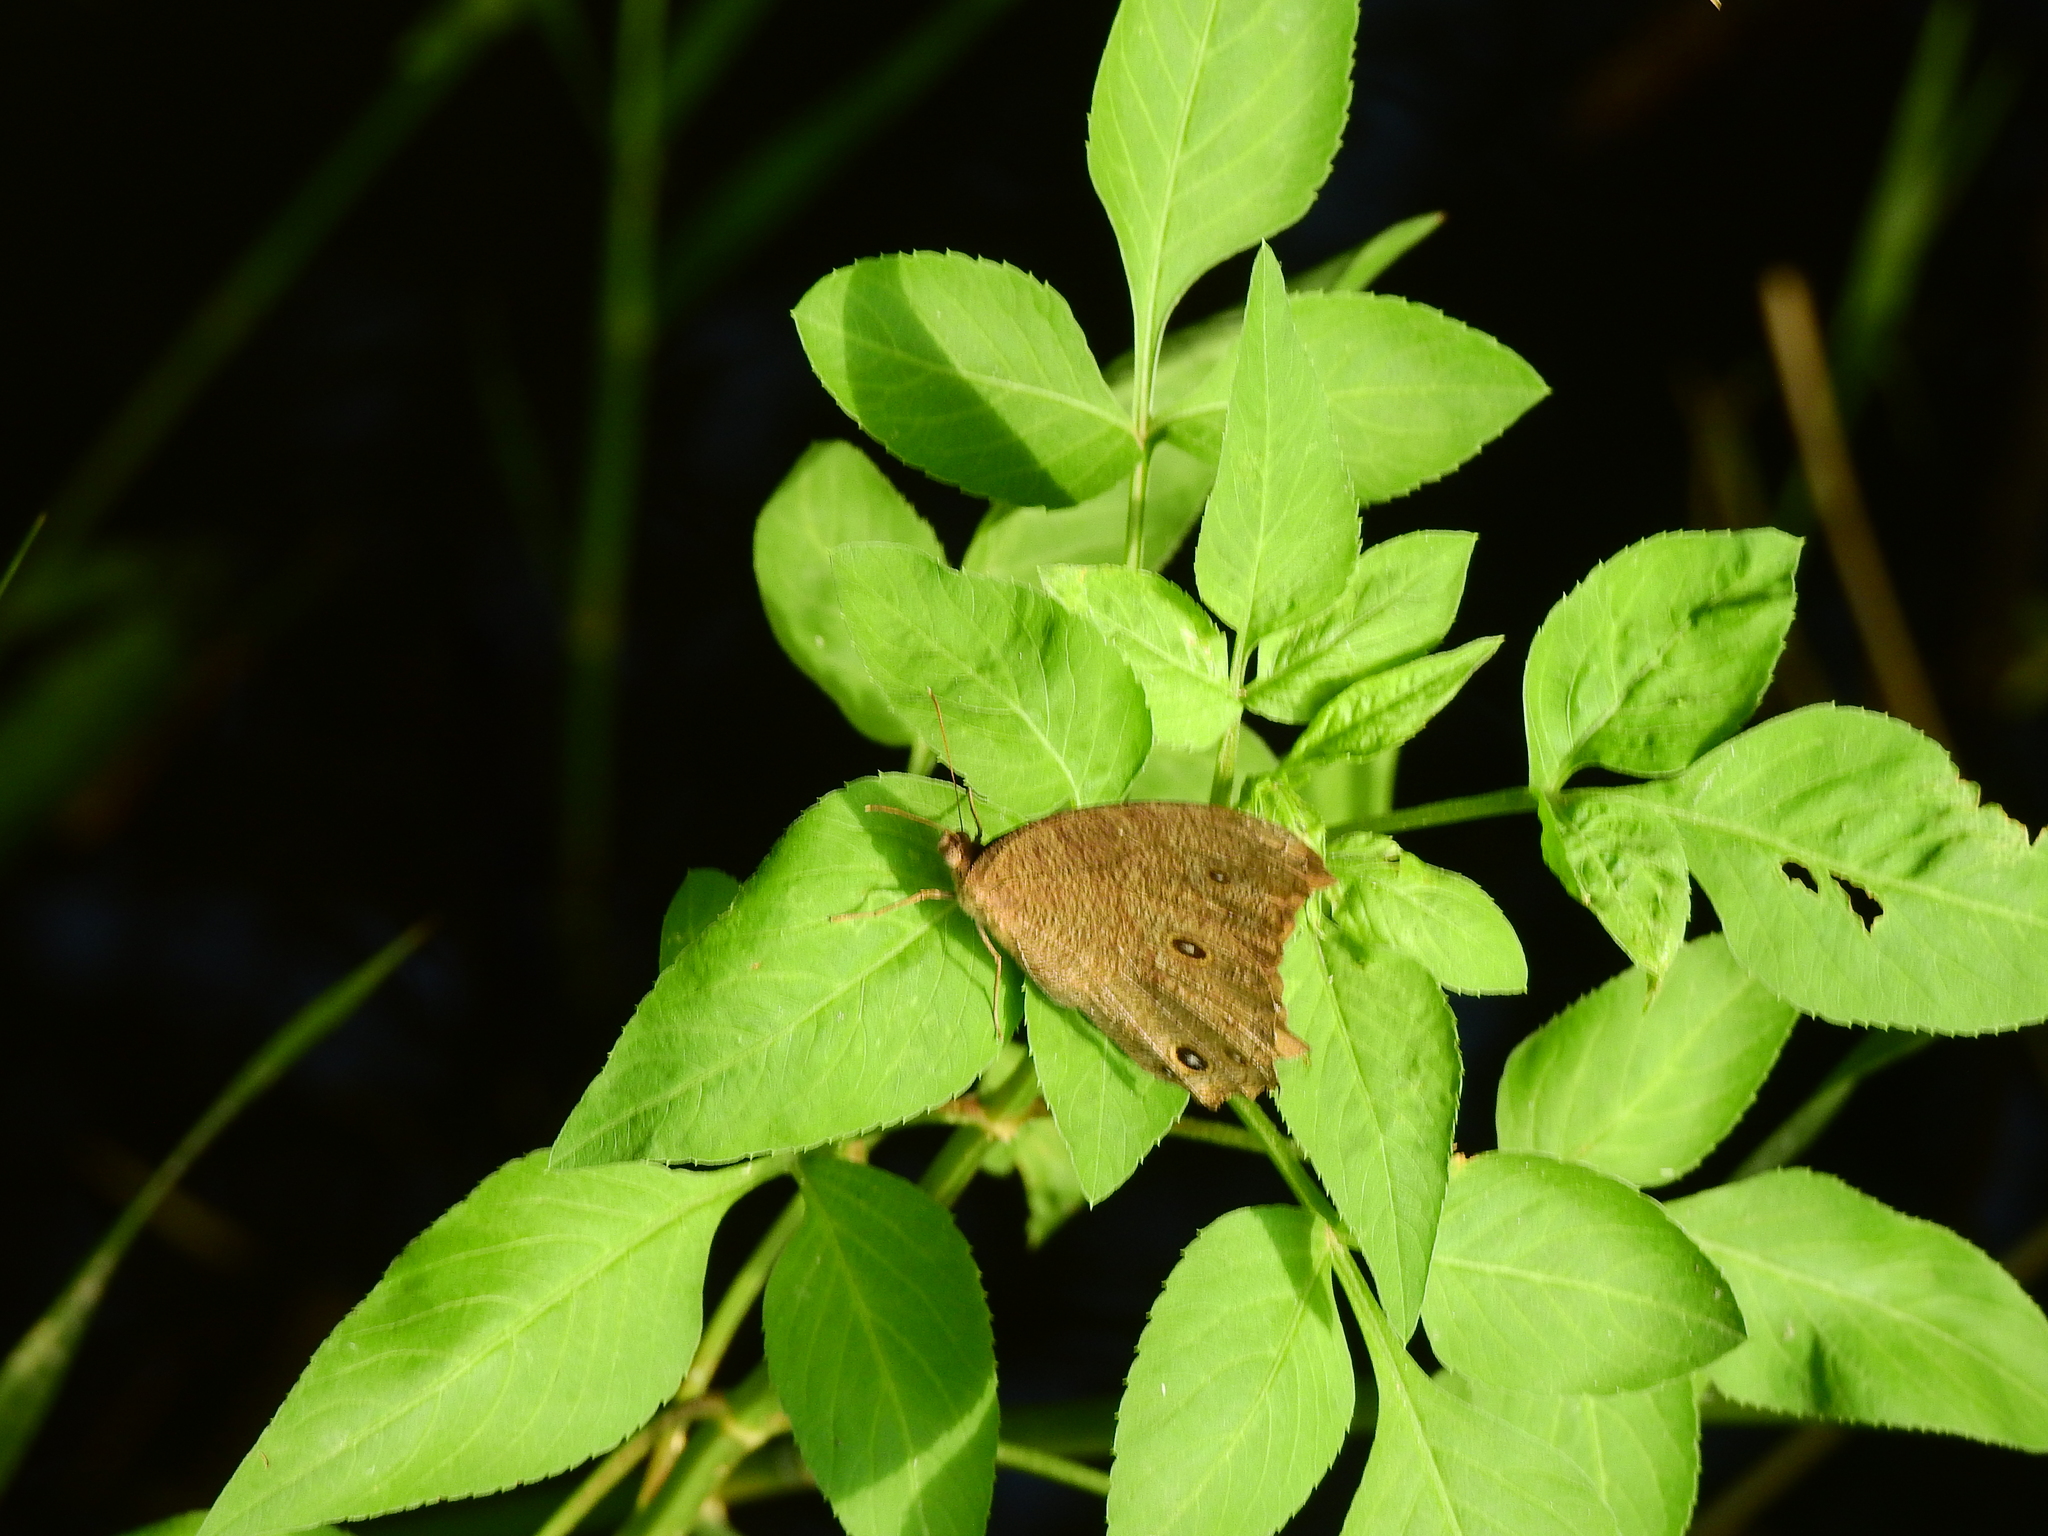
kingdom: Animalia
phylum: Arthropoda
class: Insecta
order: Lepidoptera
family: Nymphalidae
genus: Melanitis
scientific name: Melanitis leda
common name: Twilight brown
